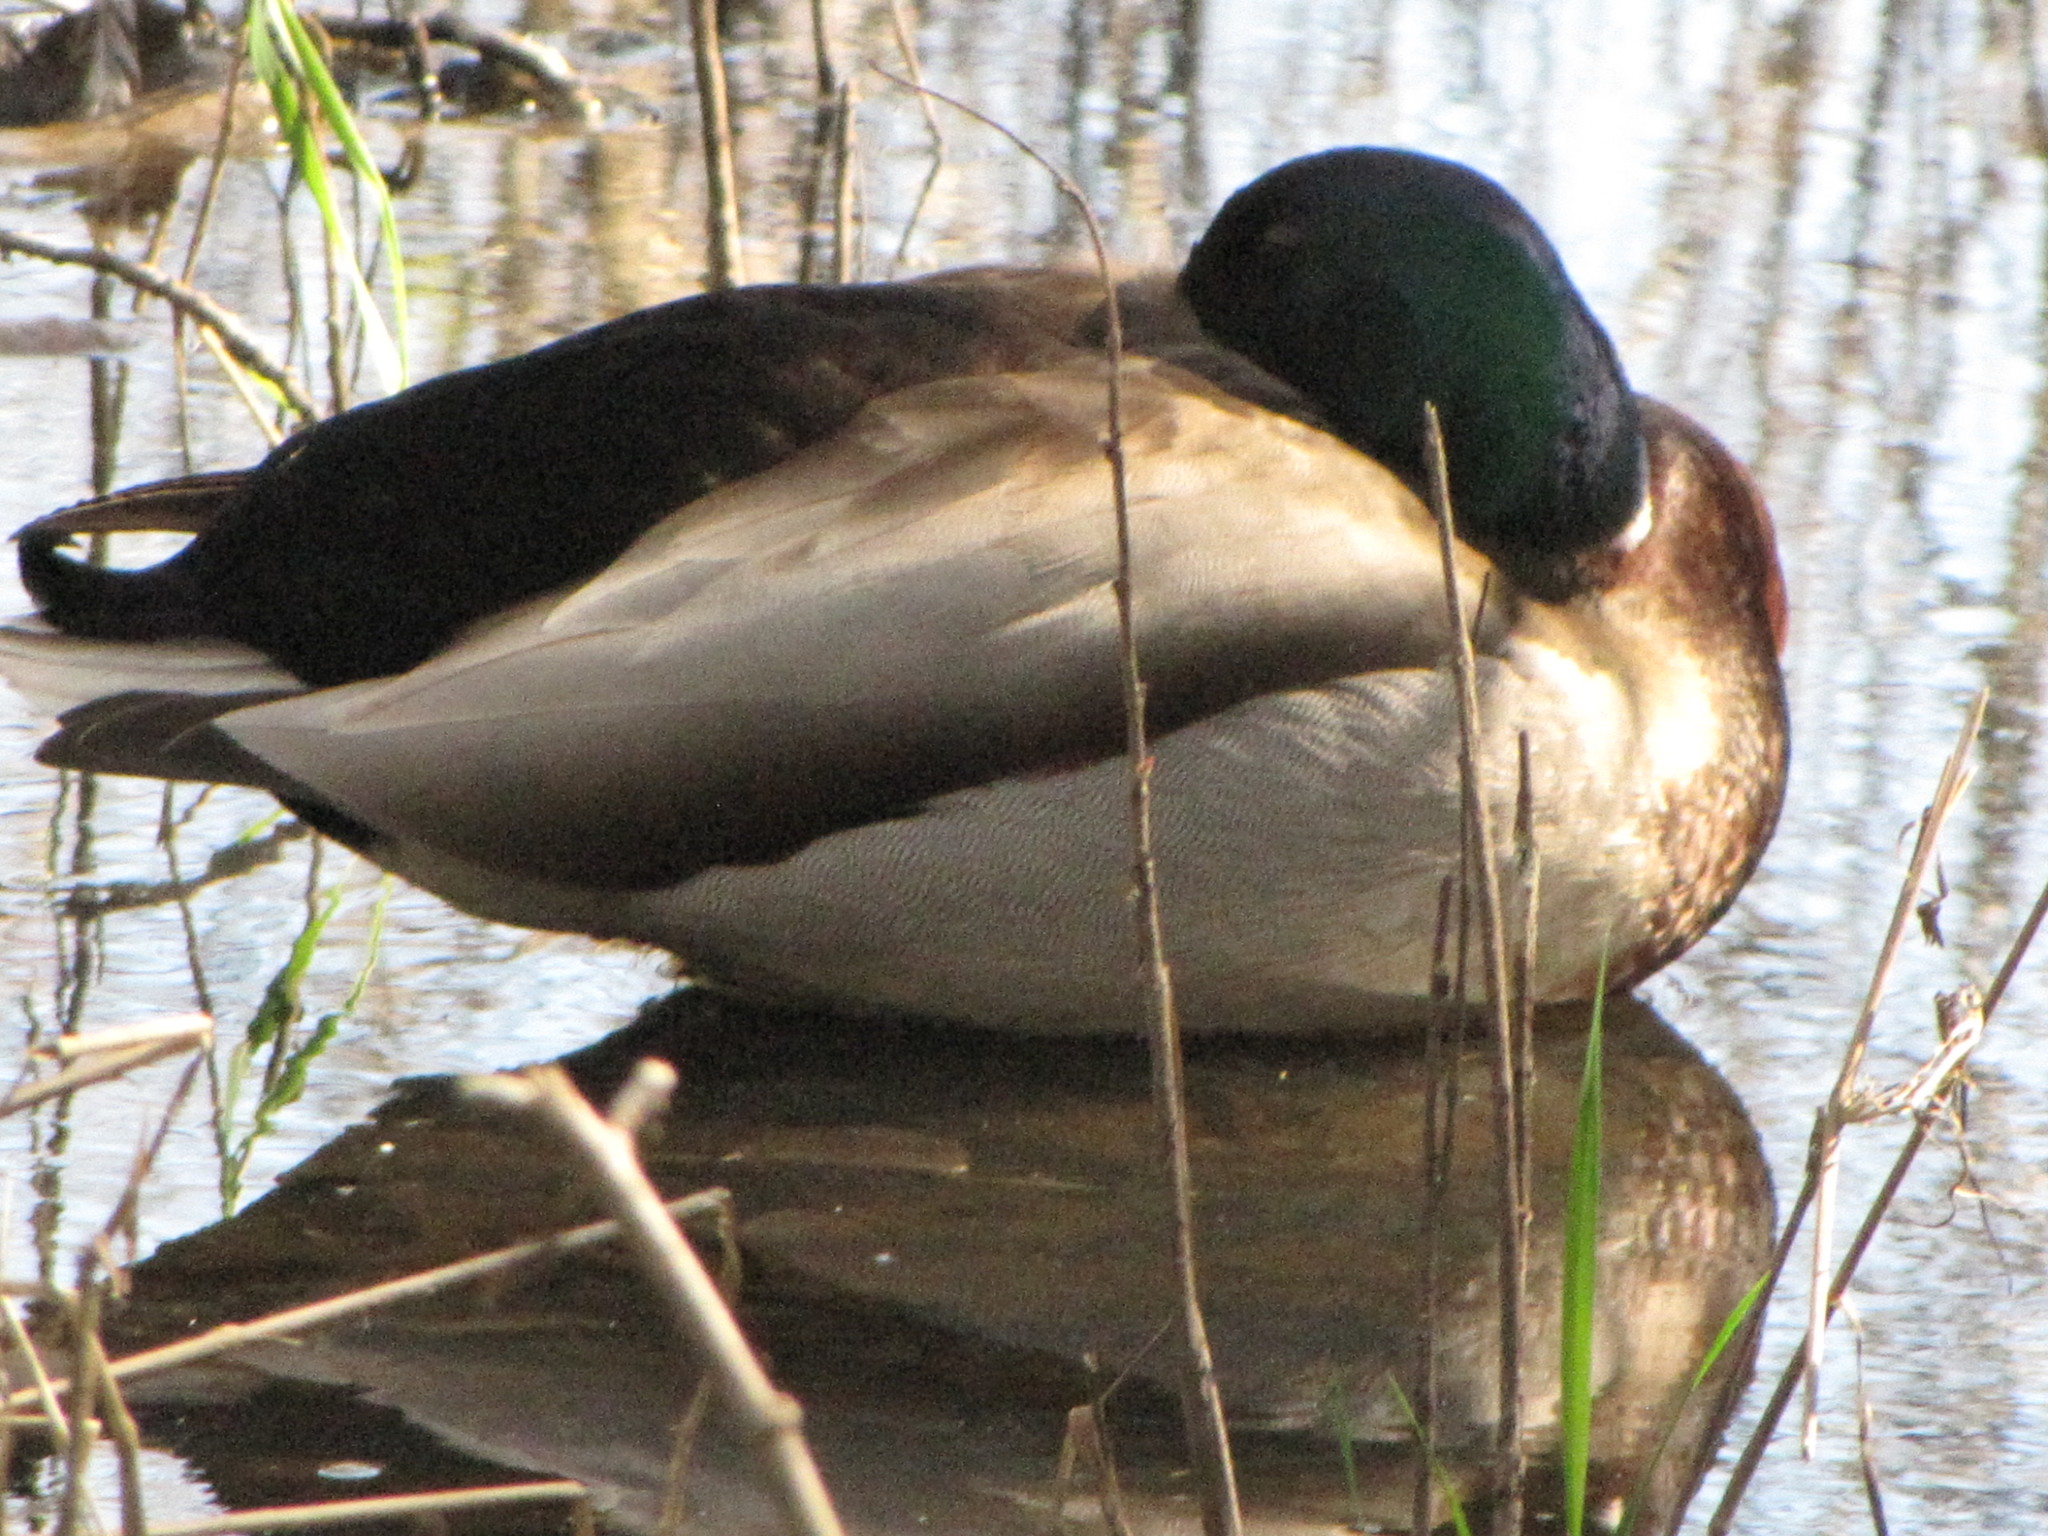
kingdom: Animalia
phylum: Chordata
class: Aves
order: Anseriformes
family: Anatidae
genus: Anas
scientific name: Anas platyrhynchos
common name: Mallard
